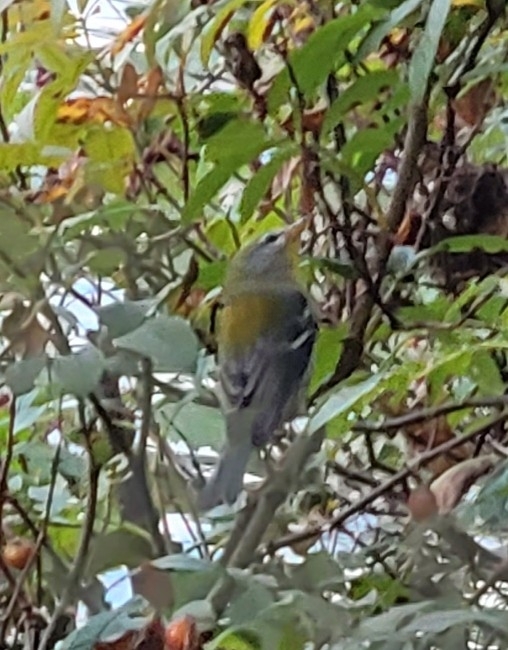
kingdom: Animalia
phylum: Chordata
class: Aves
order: Passeriformes
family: Parulidae
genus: Setophaga
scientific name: Setophaga americana
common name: Northern parula
